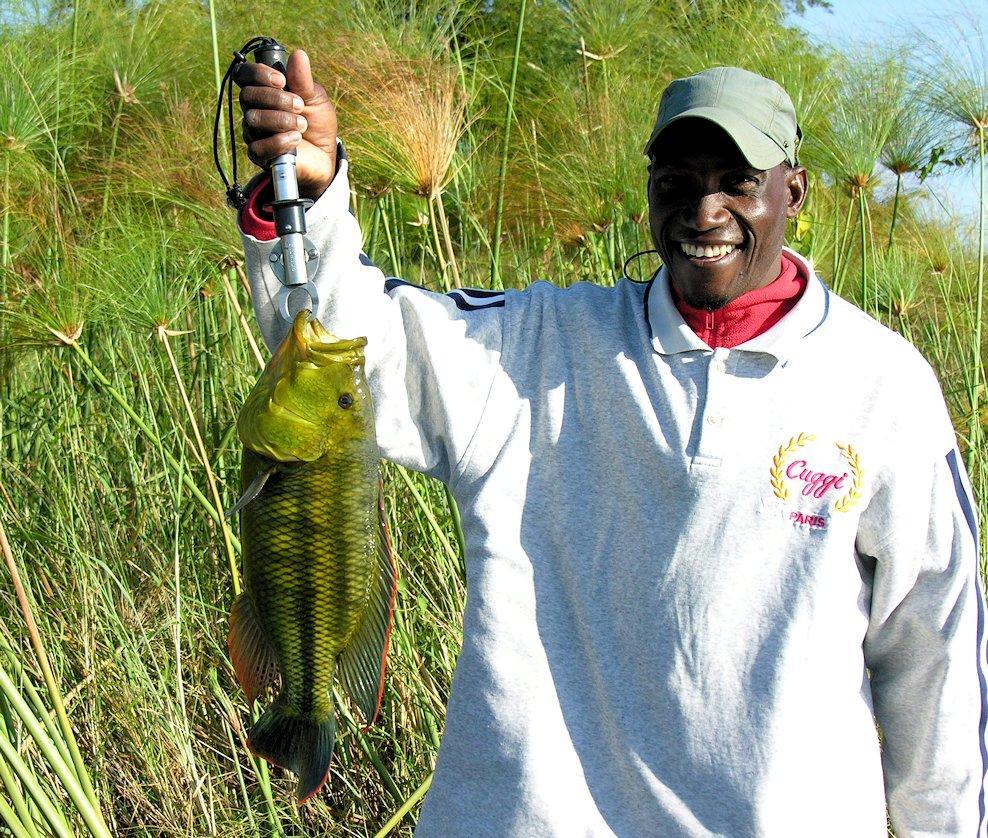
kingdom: Animalia
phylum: Chordata
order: Perciformes
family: Cichlidae
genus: Serranochromis
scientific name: Serranochromis jallae
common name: Upper zambezi nembwe
